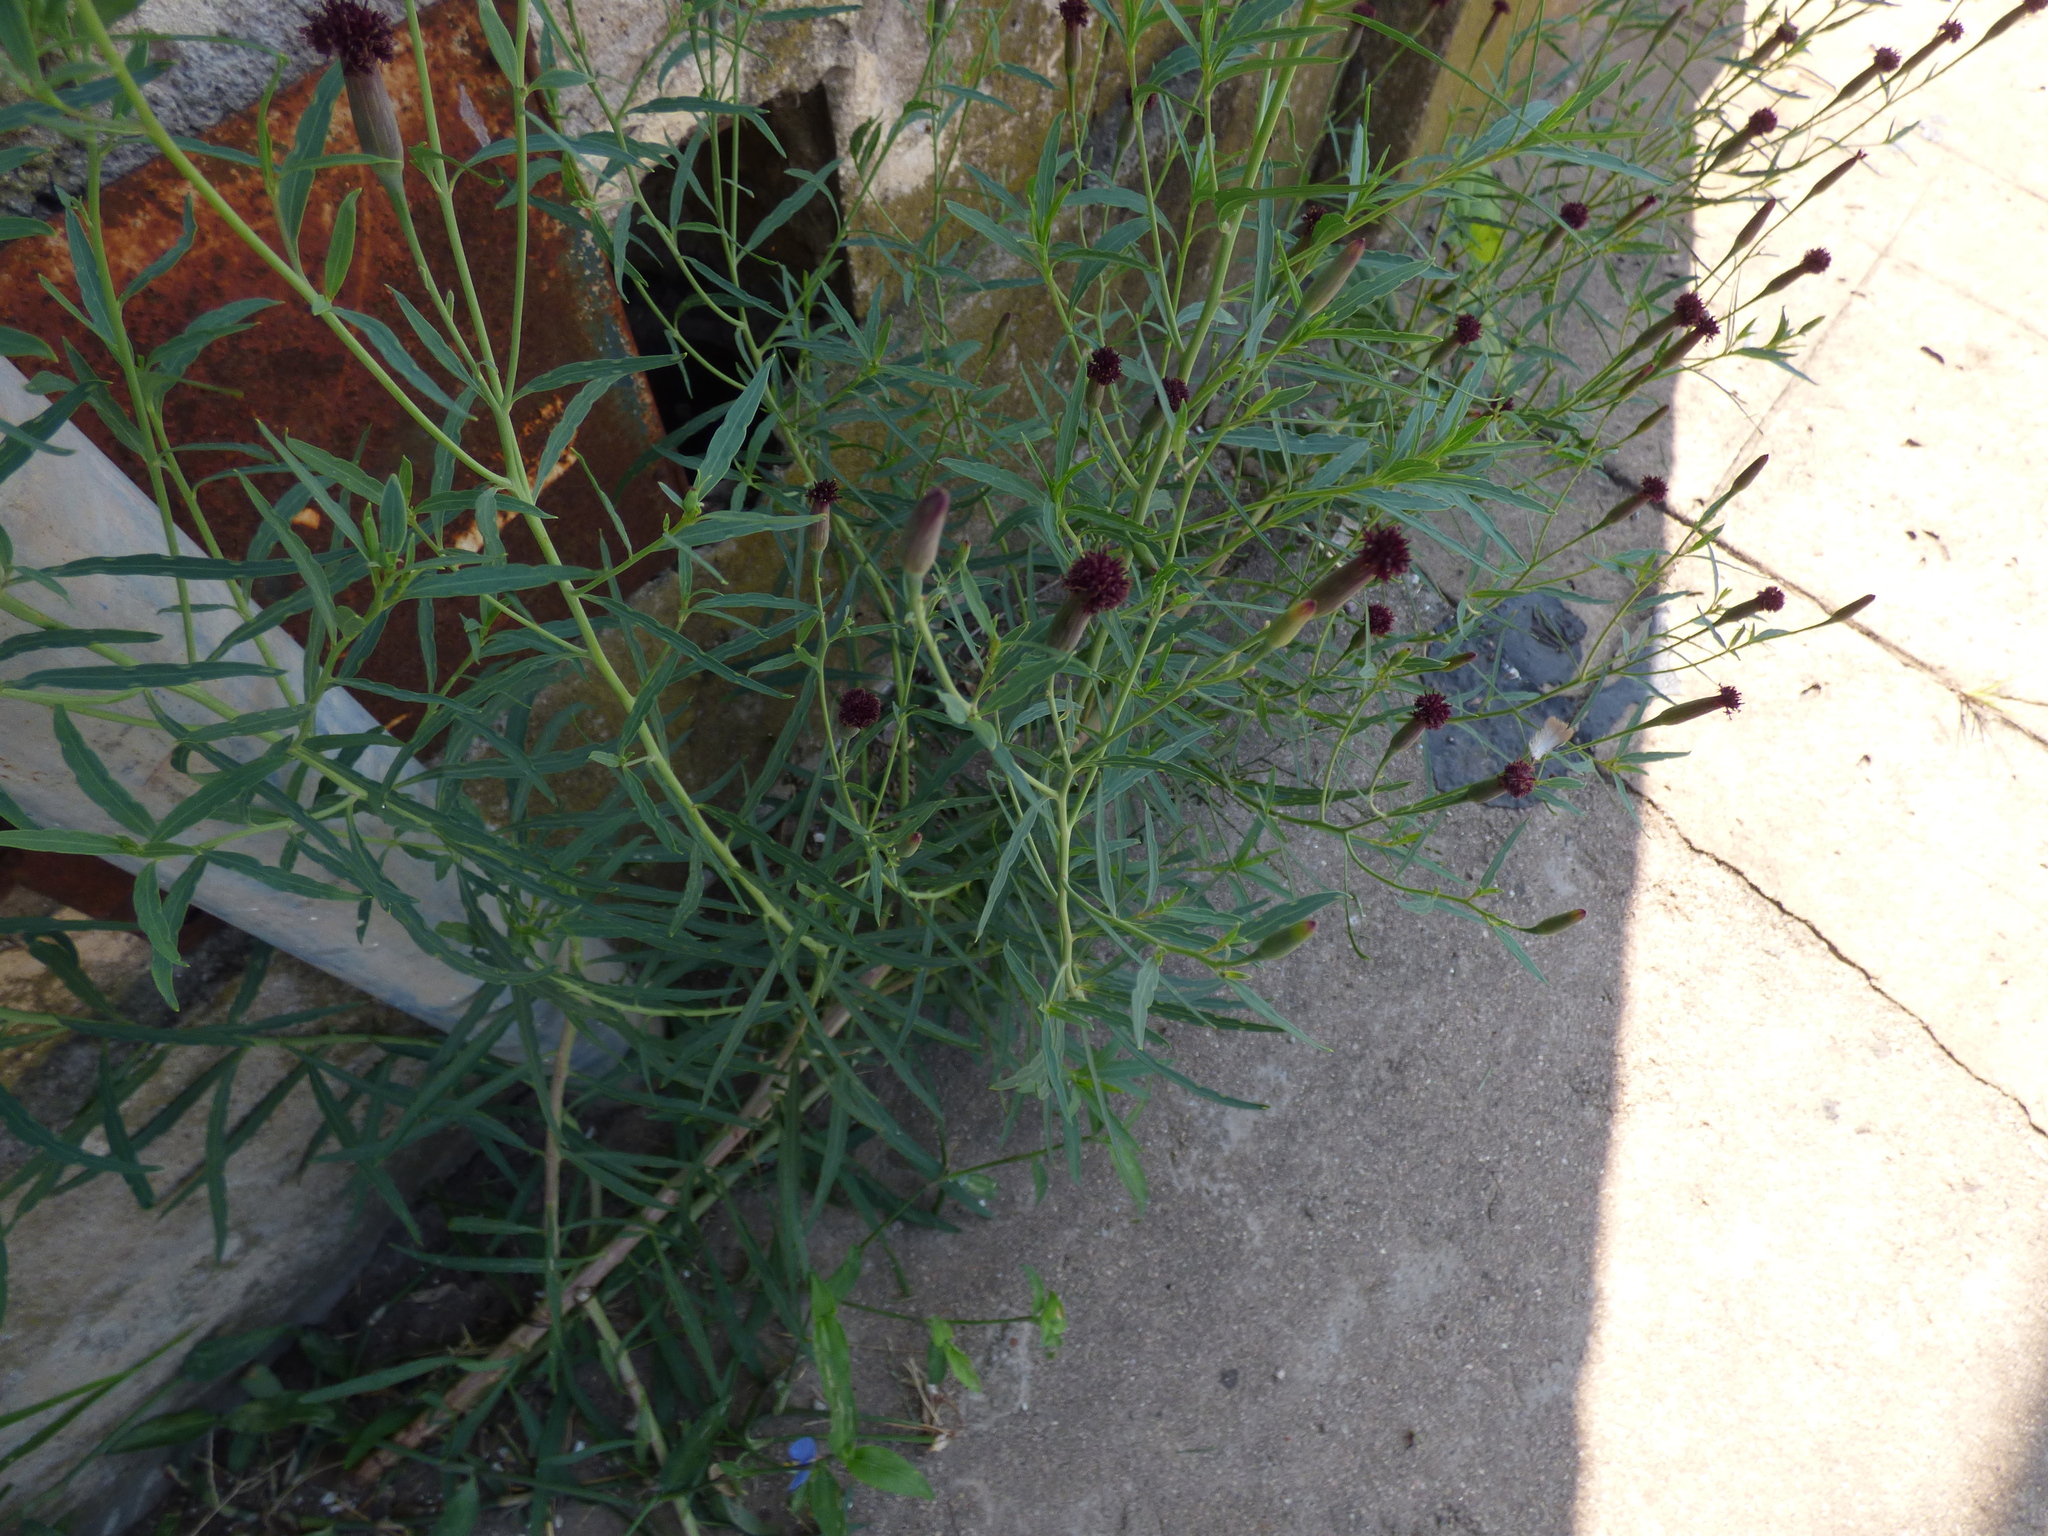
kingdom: Plantae
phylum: Tracheophyta
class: Magnoliopsida
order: Asterales
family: Asteraceae
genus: Porophyllum
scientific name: Porophyllum ruderale
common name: Yerba porosa
